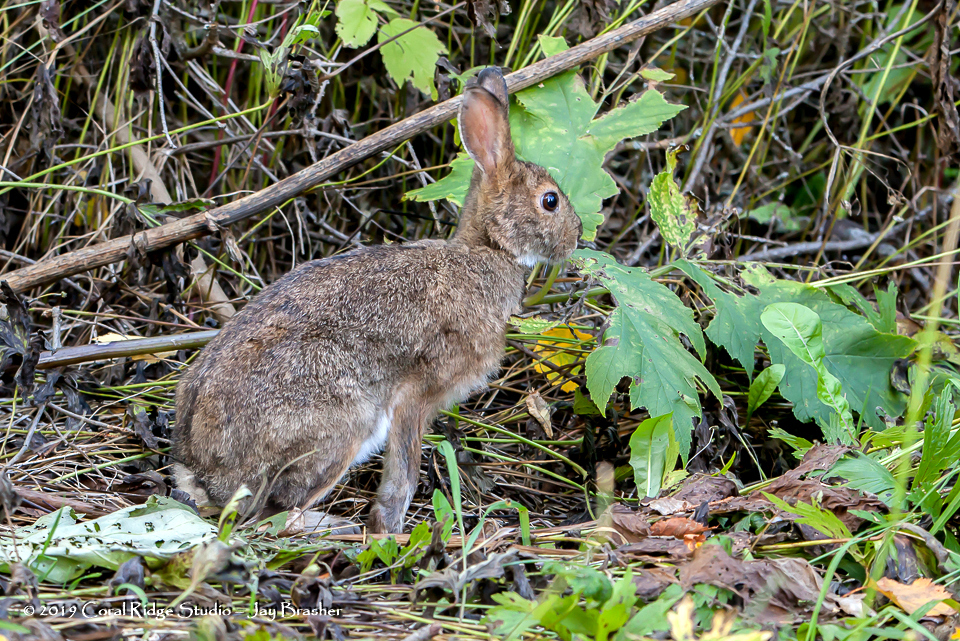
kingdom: Animalia
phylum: Chordata
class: Mammalia
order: Lagomorpha
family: Leporidae
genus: Lepus
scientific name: Lepus americanus
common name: Snowshoe hare
